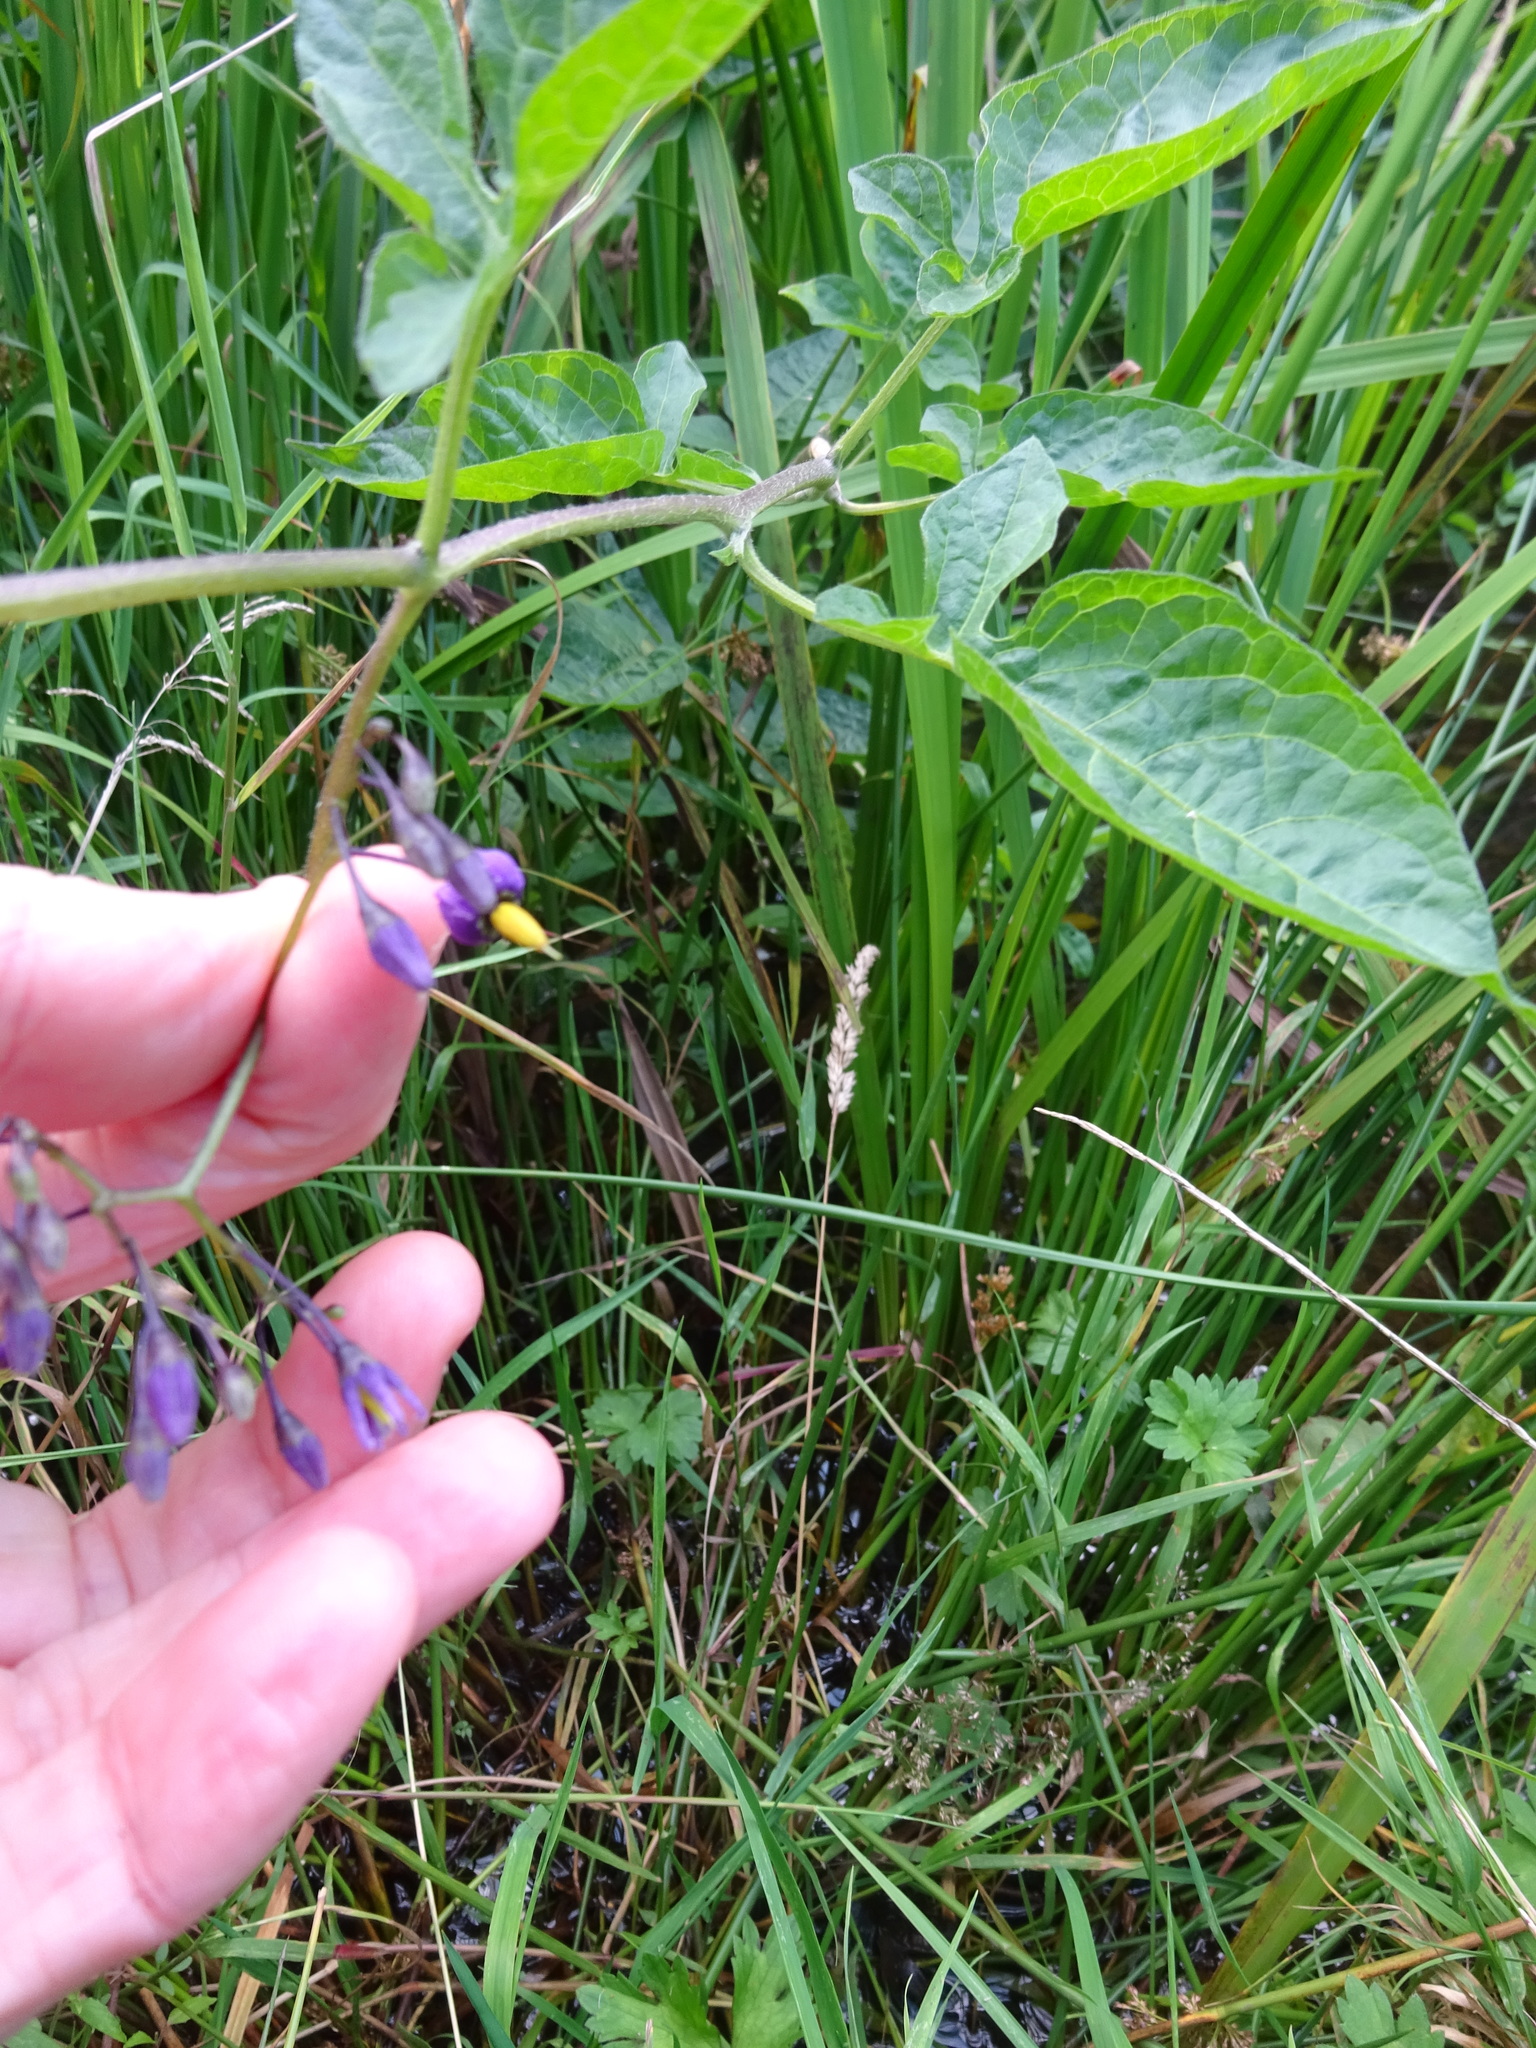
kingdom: Plantae
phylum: Tracheophyta
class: Magnoliopsida
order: Solanales
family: Solanaceae
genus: Solanum
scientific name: Solanum dulcamara
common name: Climbing nightshade
